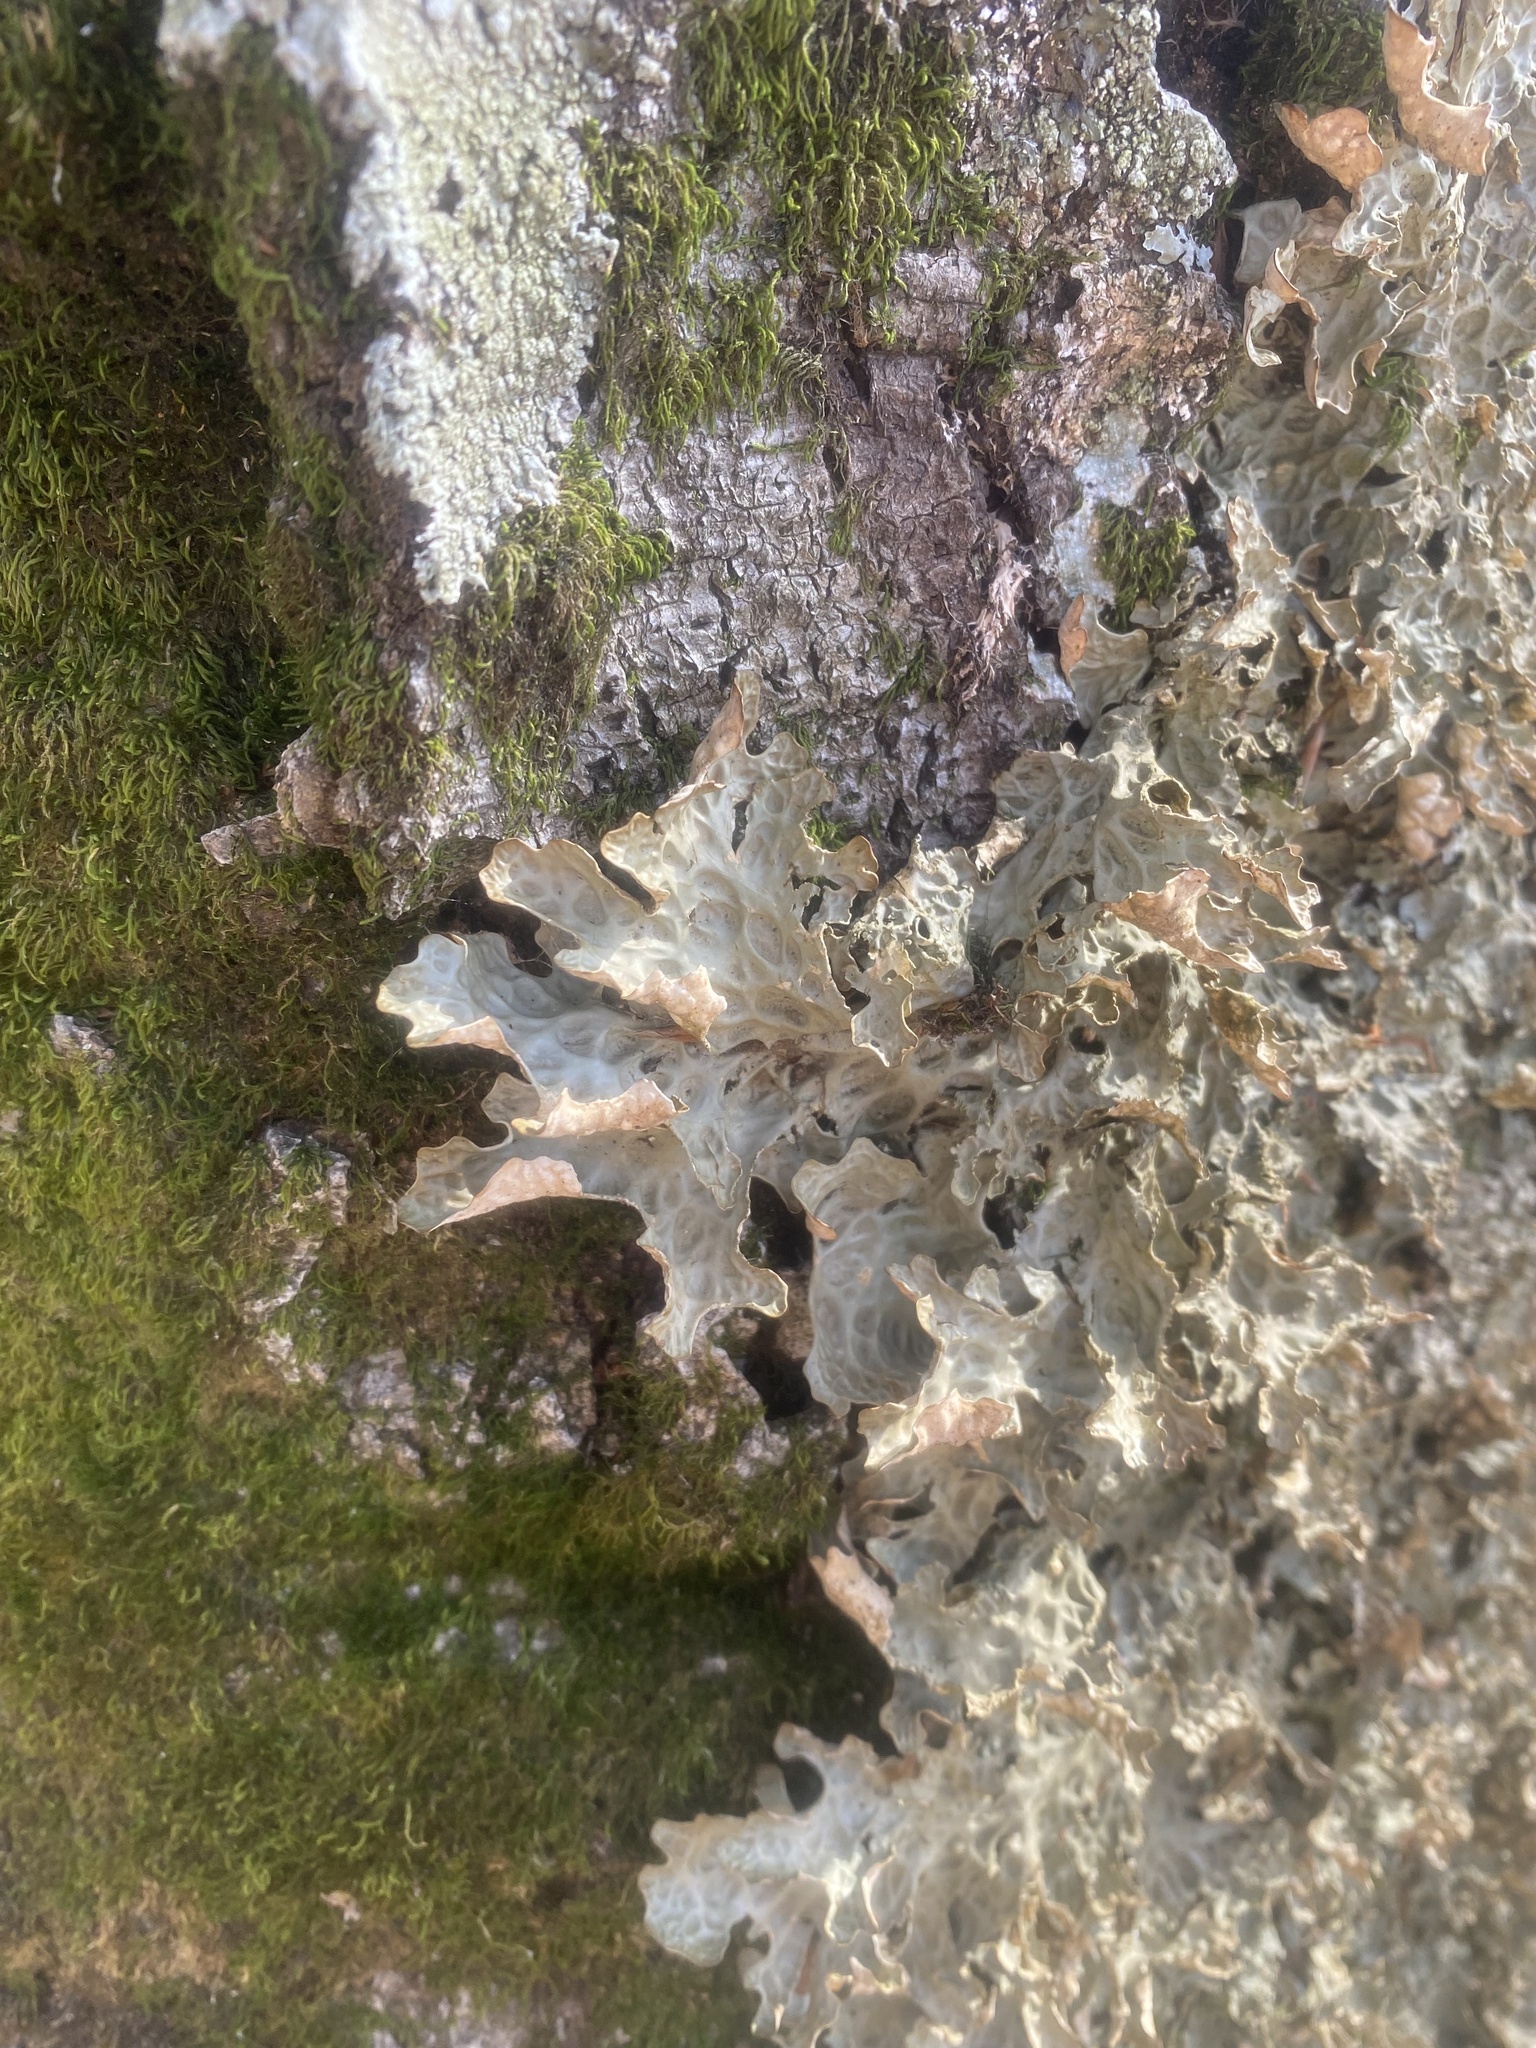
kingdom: Fungi
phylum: Ascomycota
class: Lecanoromycetes
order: Peltigerales
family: Lobariaceae
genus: Lobaria
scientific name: Lobaria pulmonaria
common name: Lungwort
